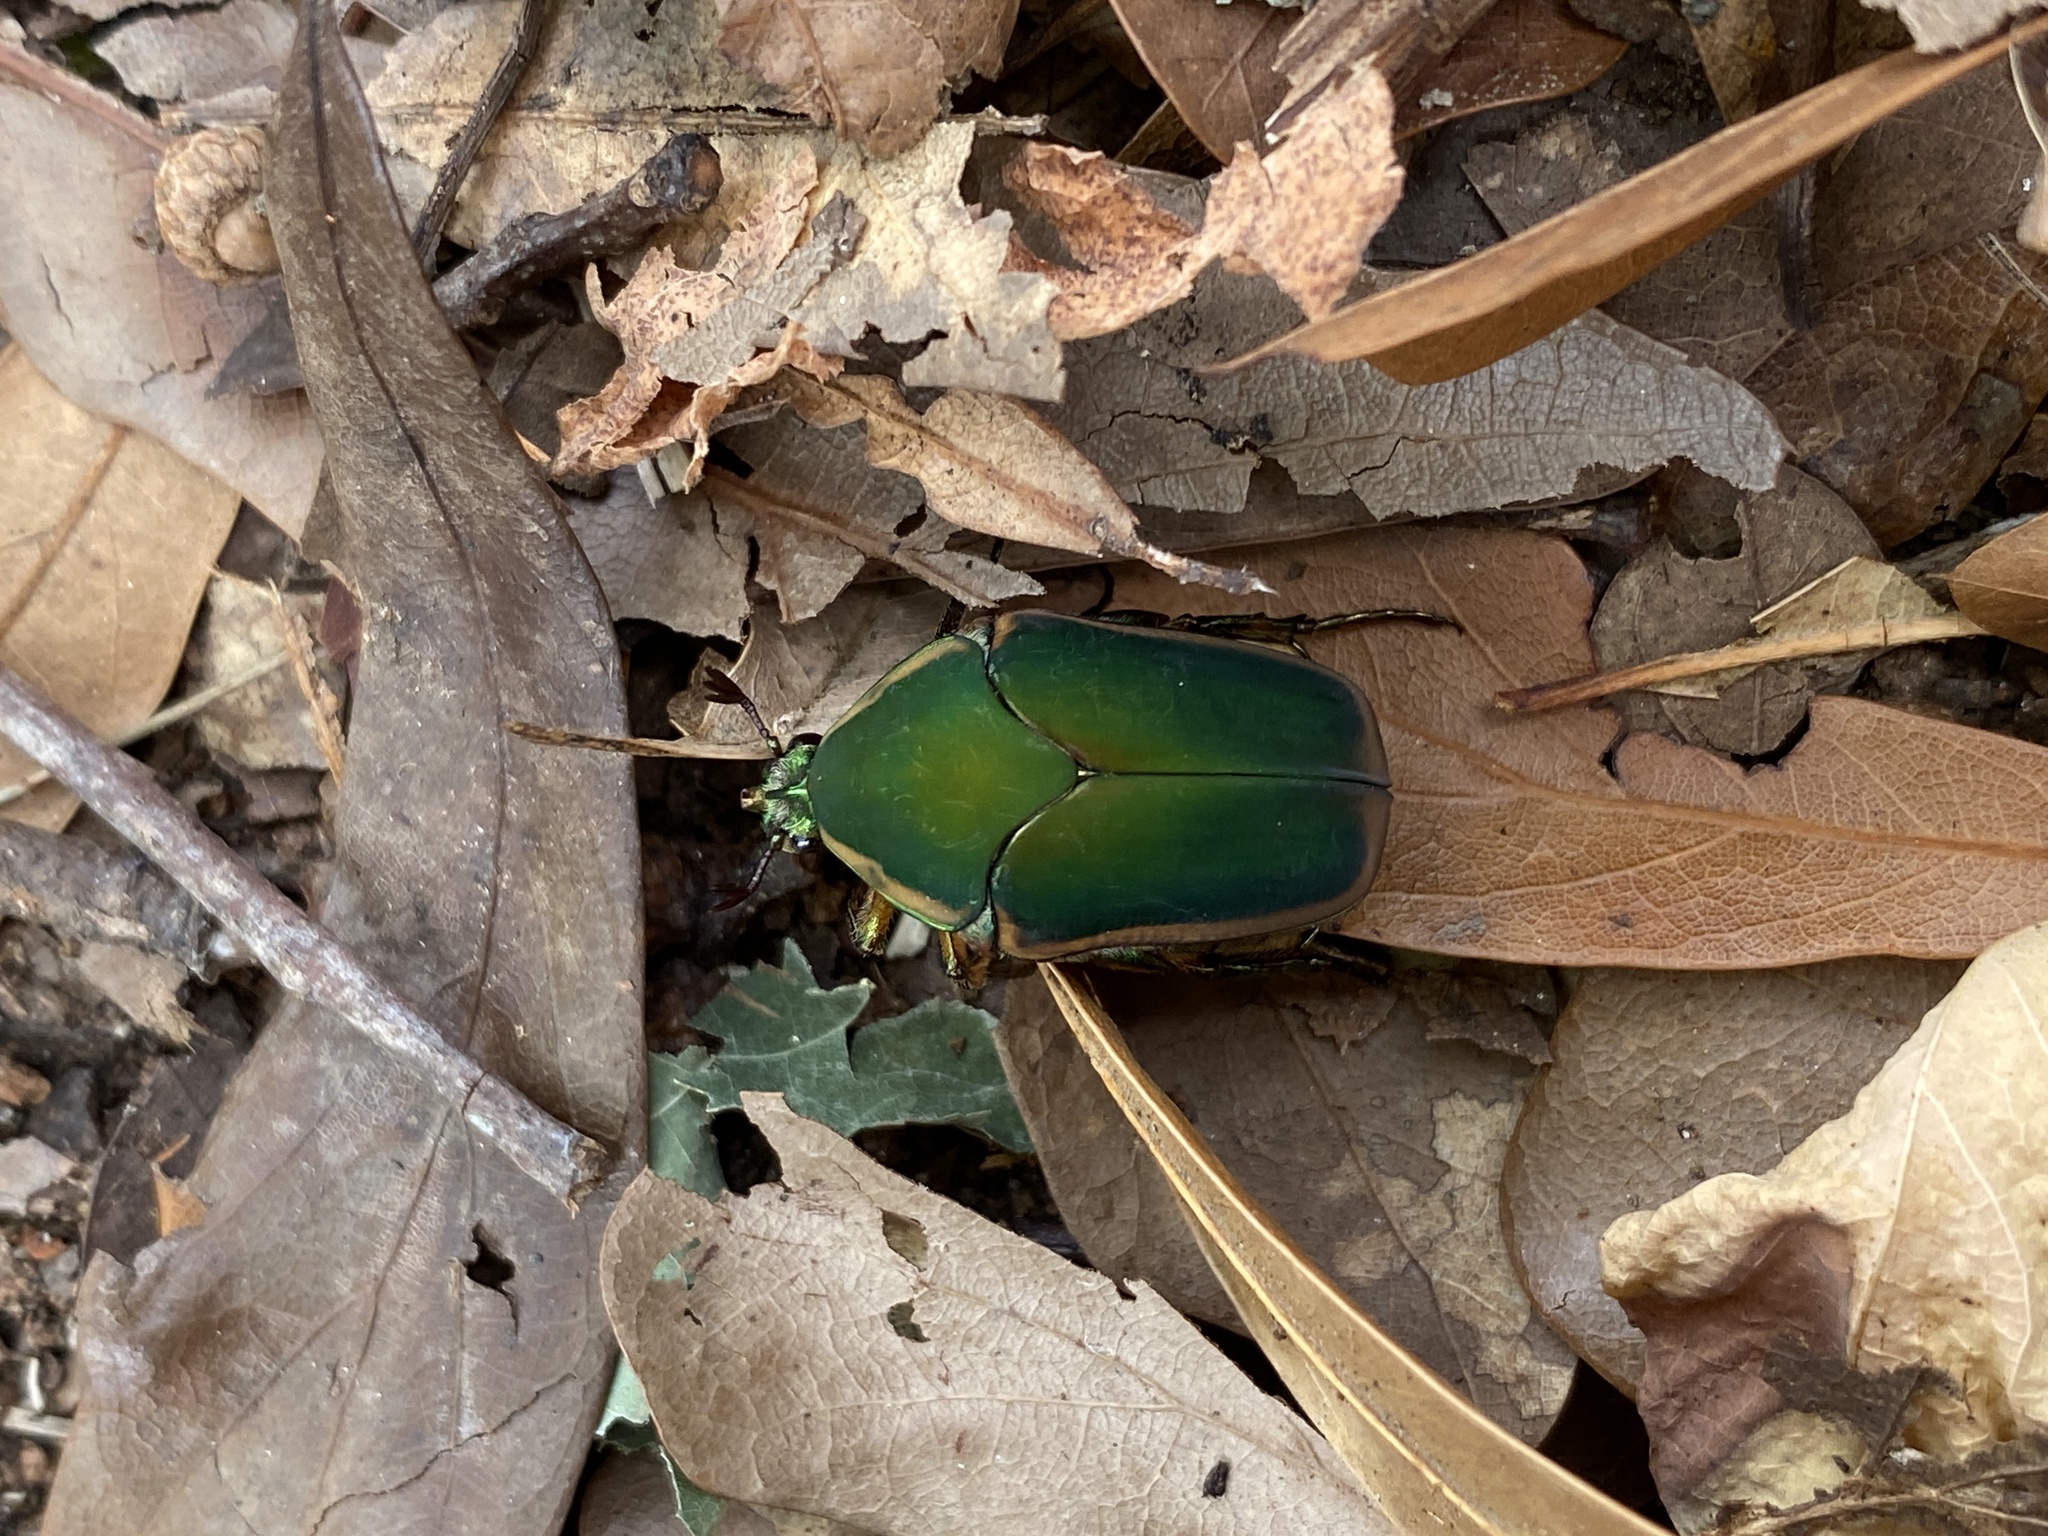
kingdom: Animalia
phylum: Arthropoda
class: Insecta
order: Coleoptera
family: Scarabaeidae
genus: Cotinis
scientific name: Cotinis nitida
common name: Common green june beetle
